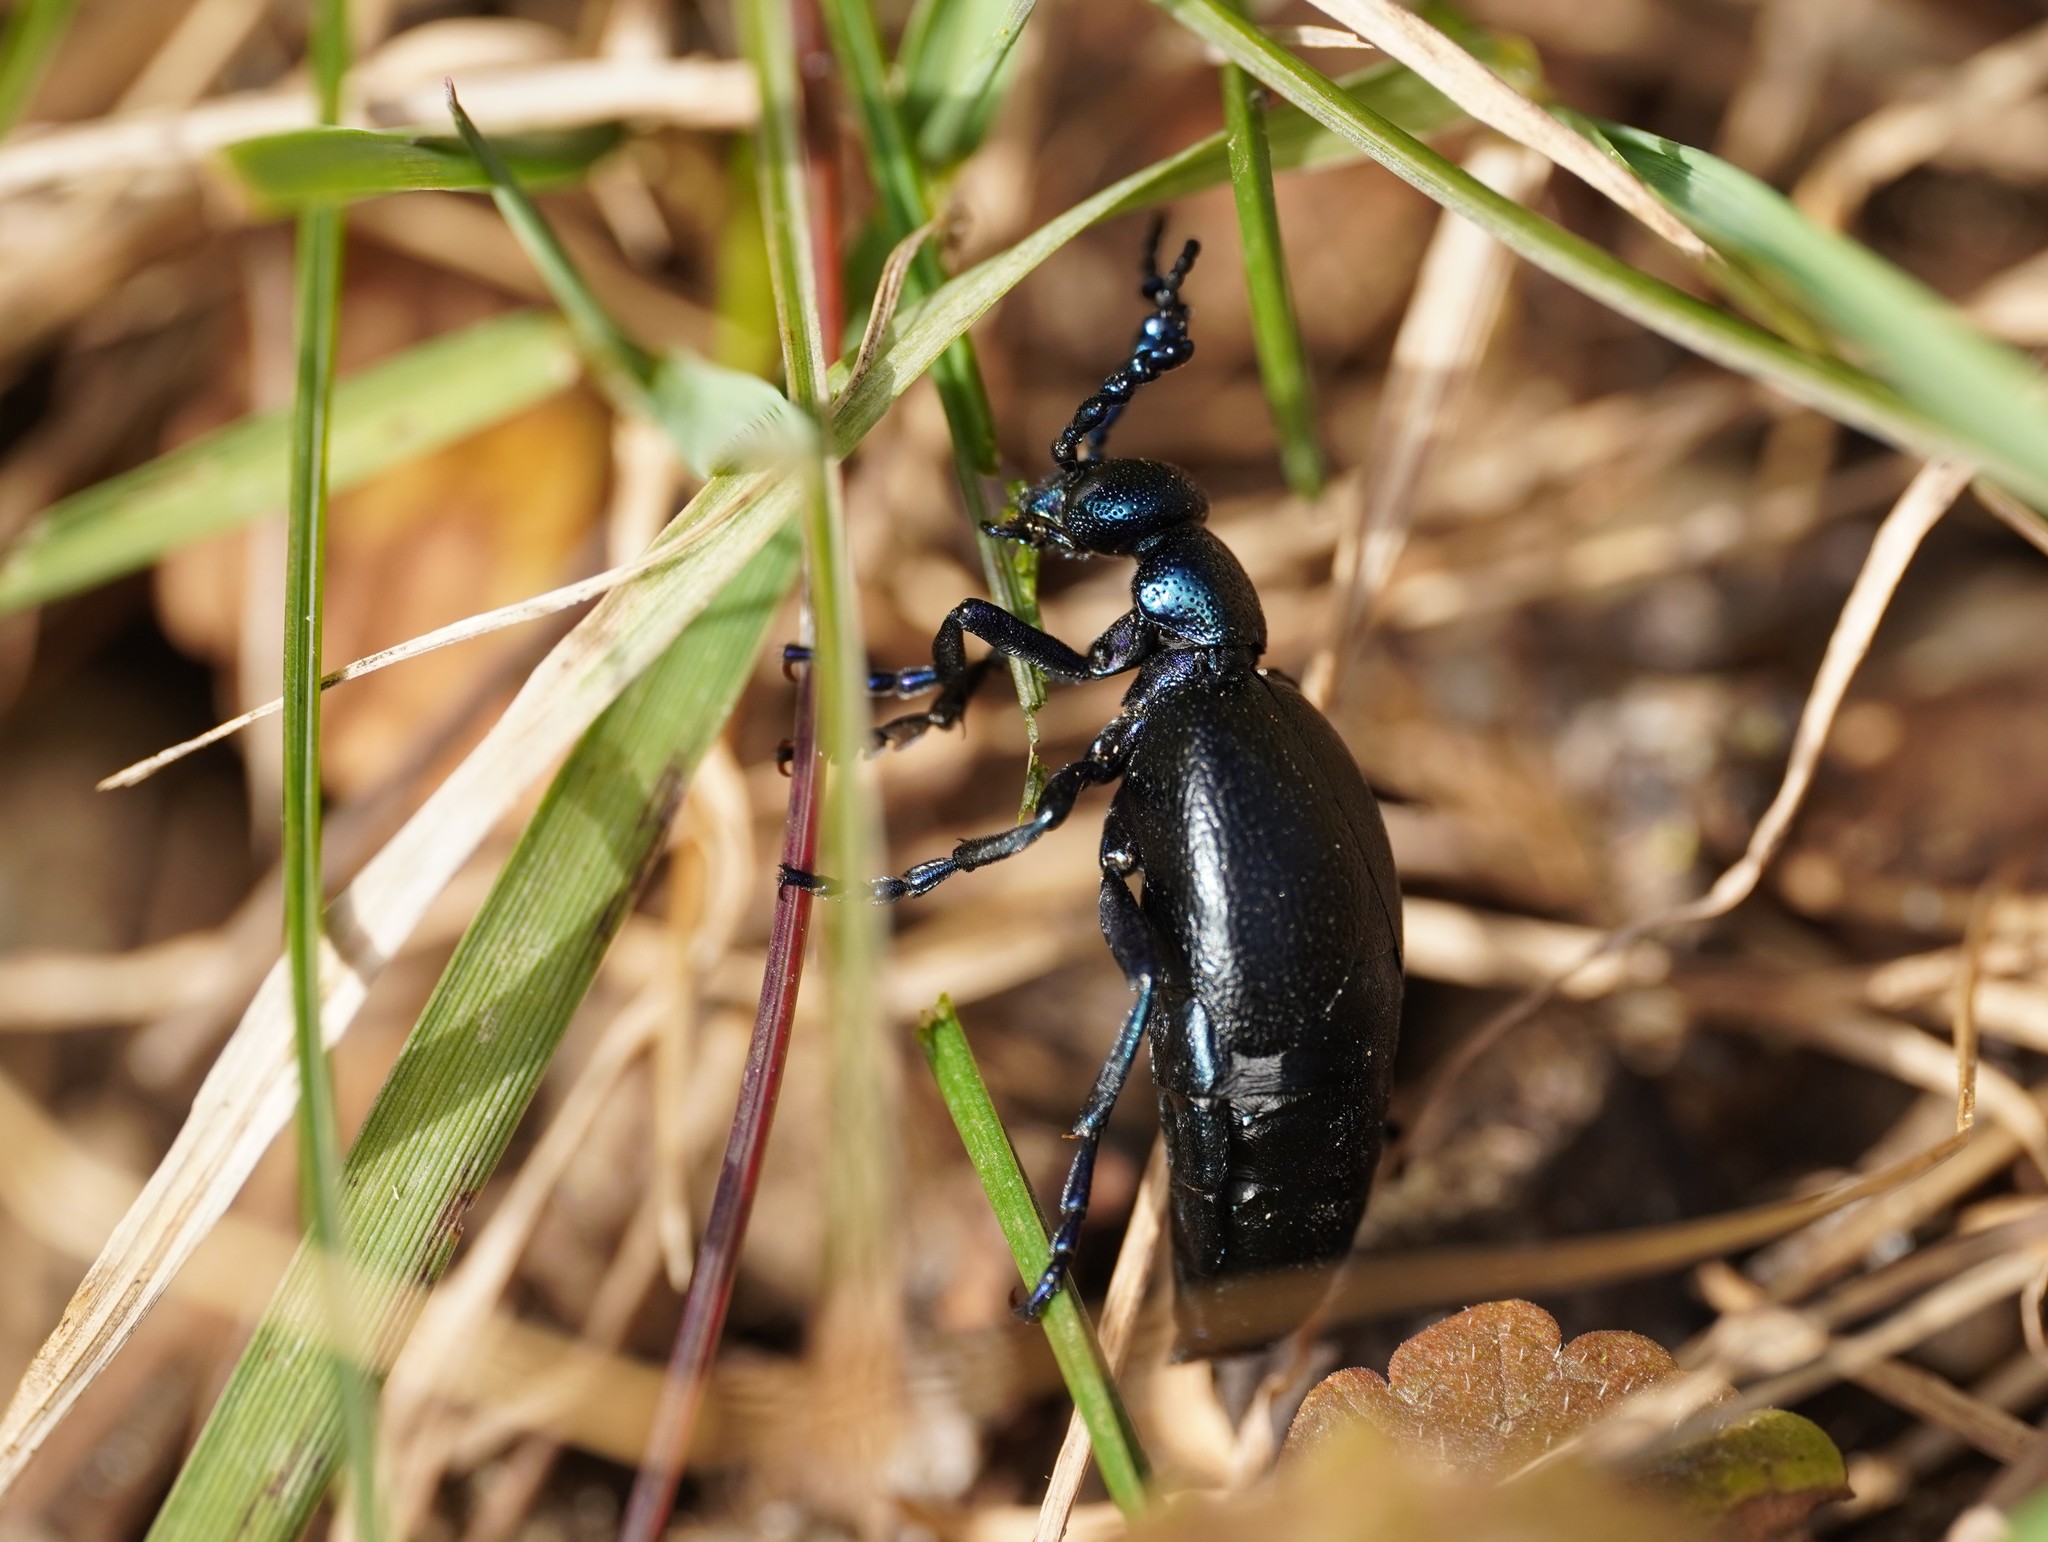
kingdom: Animalia
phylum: Arthropoda
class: Insecta
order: Coleoptera
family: Meloidae
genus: Meloe
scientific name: Meloe proscarabaeus
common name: Black oil-beetle
